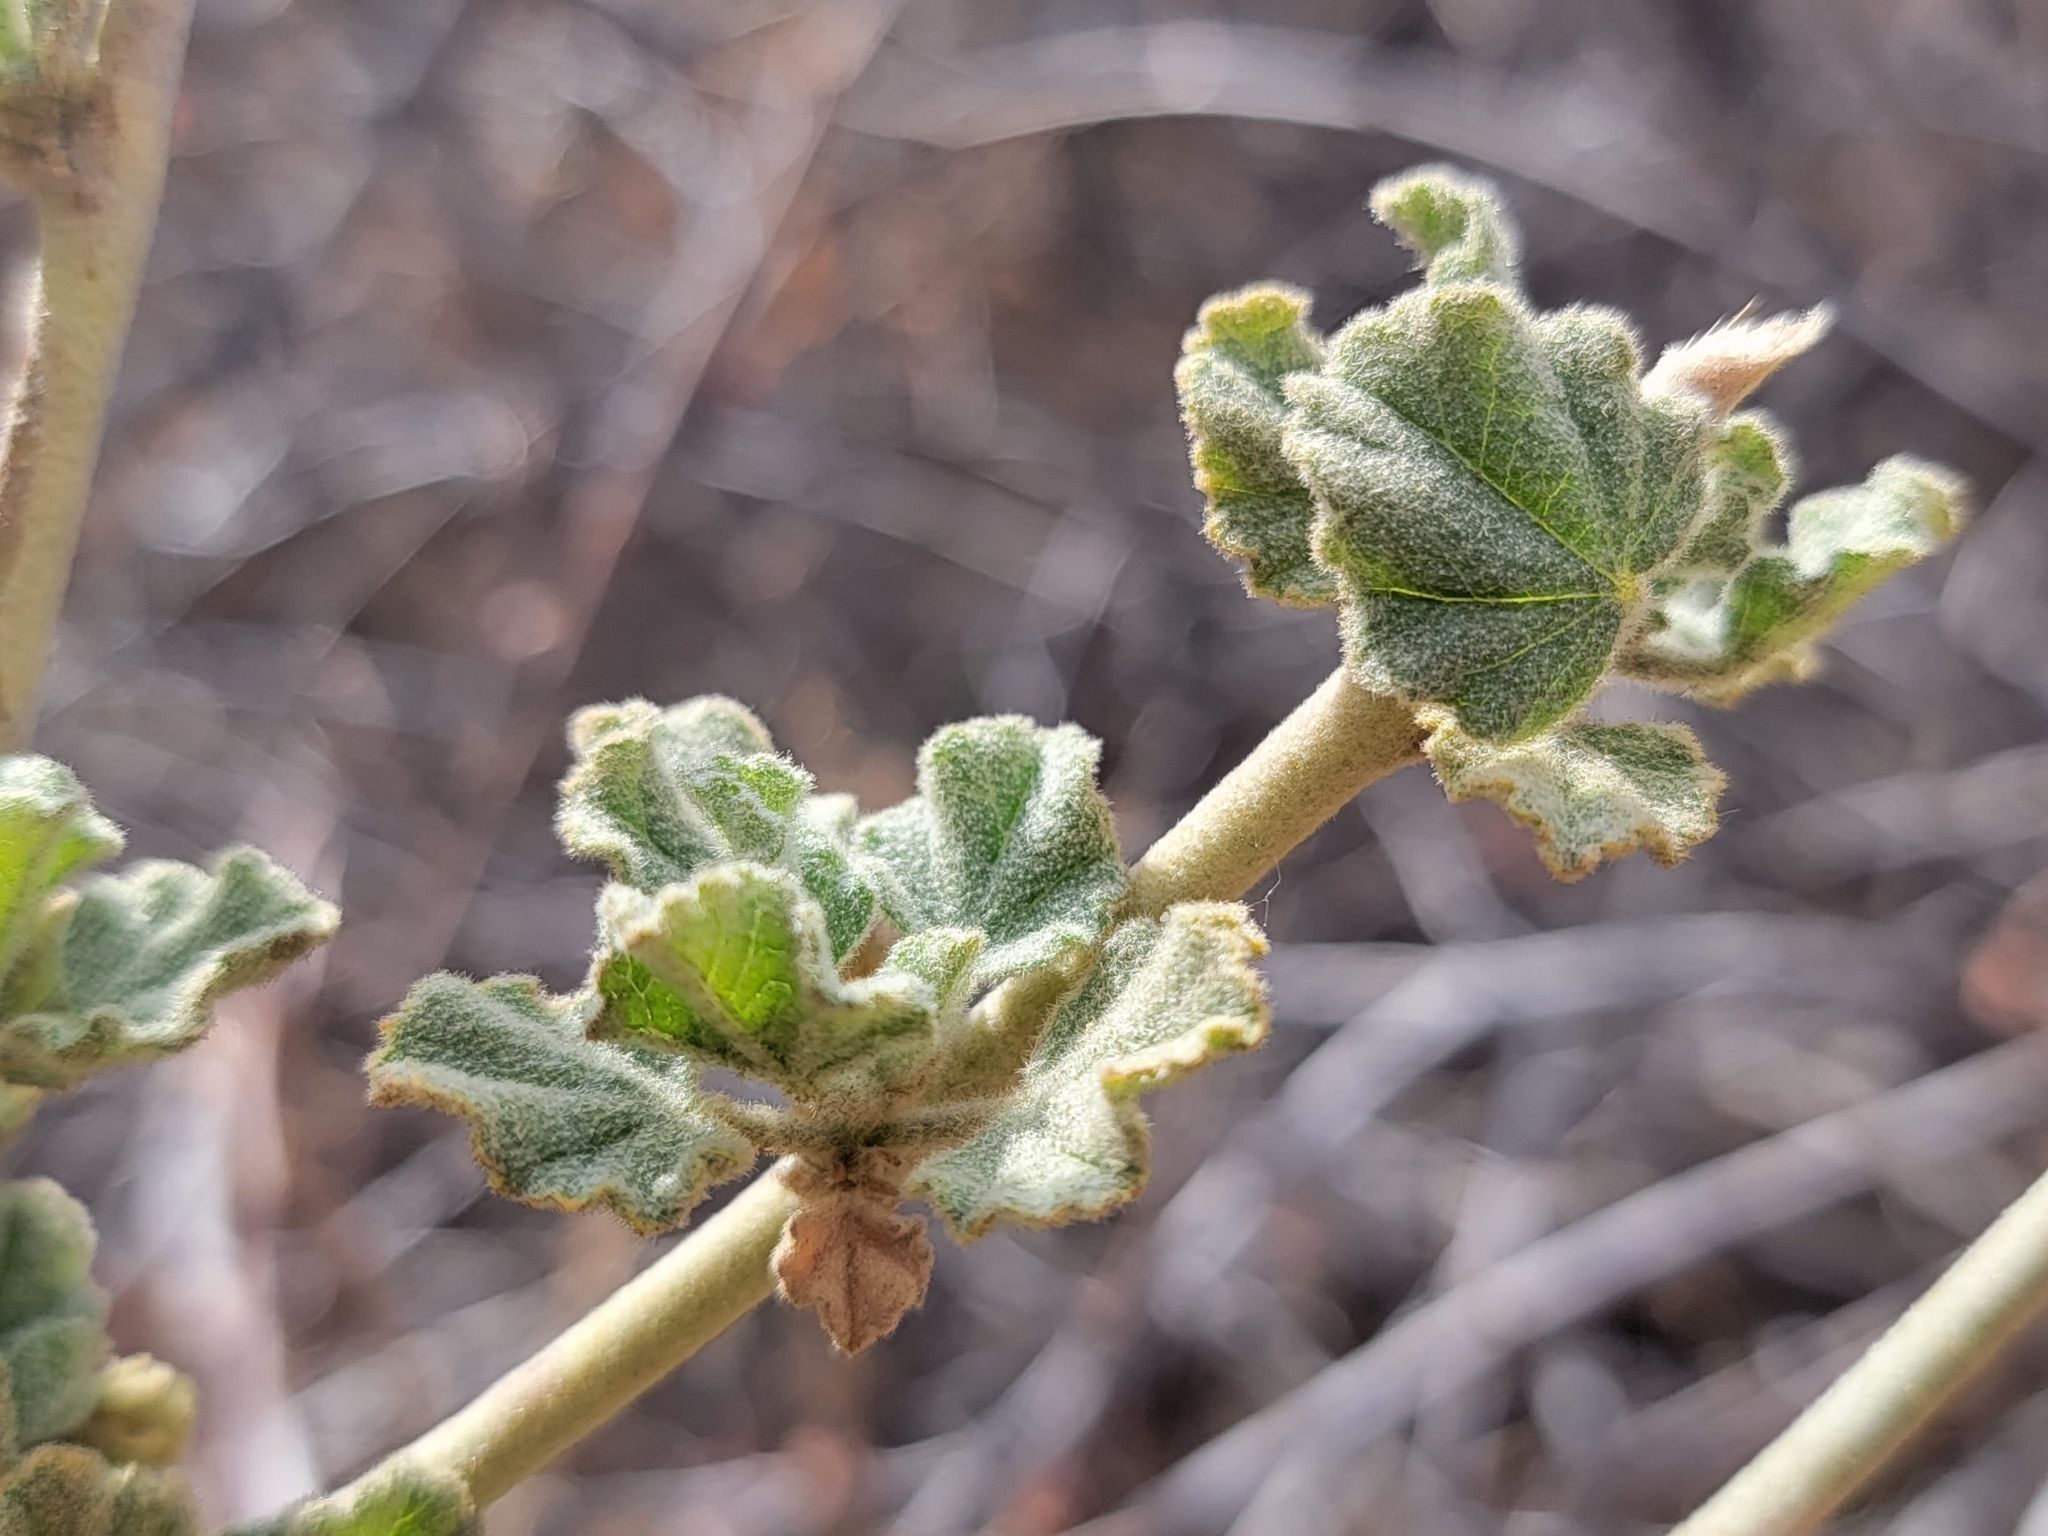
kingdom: Plantae
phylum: Tracheophyta
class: Magnoliopsida
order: Malvales
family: Malvaceae
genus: Malacothamnus
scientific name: Malacothamnus fremontii
